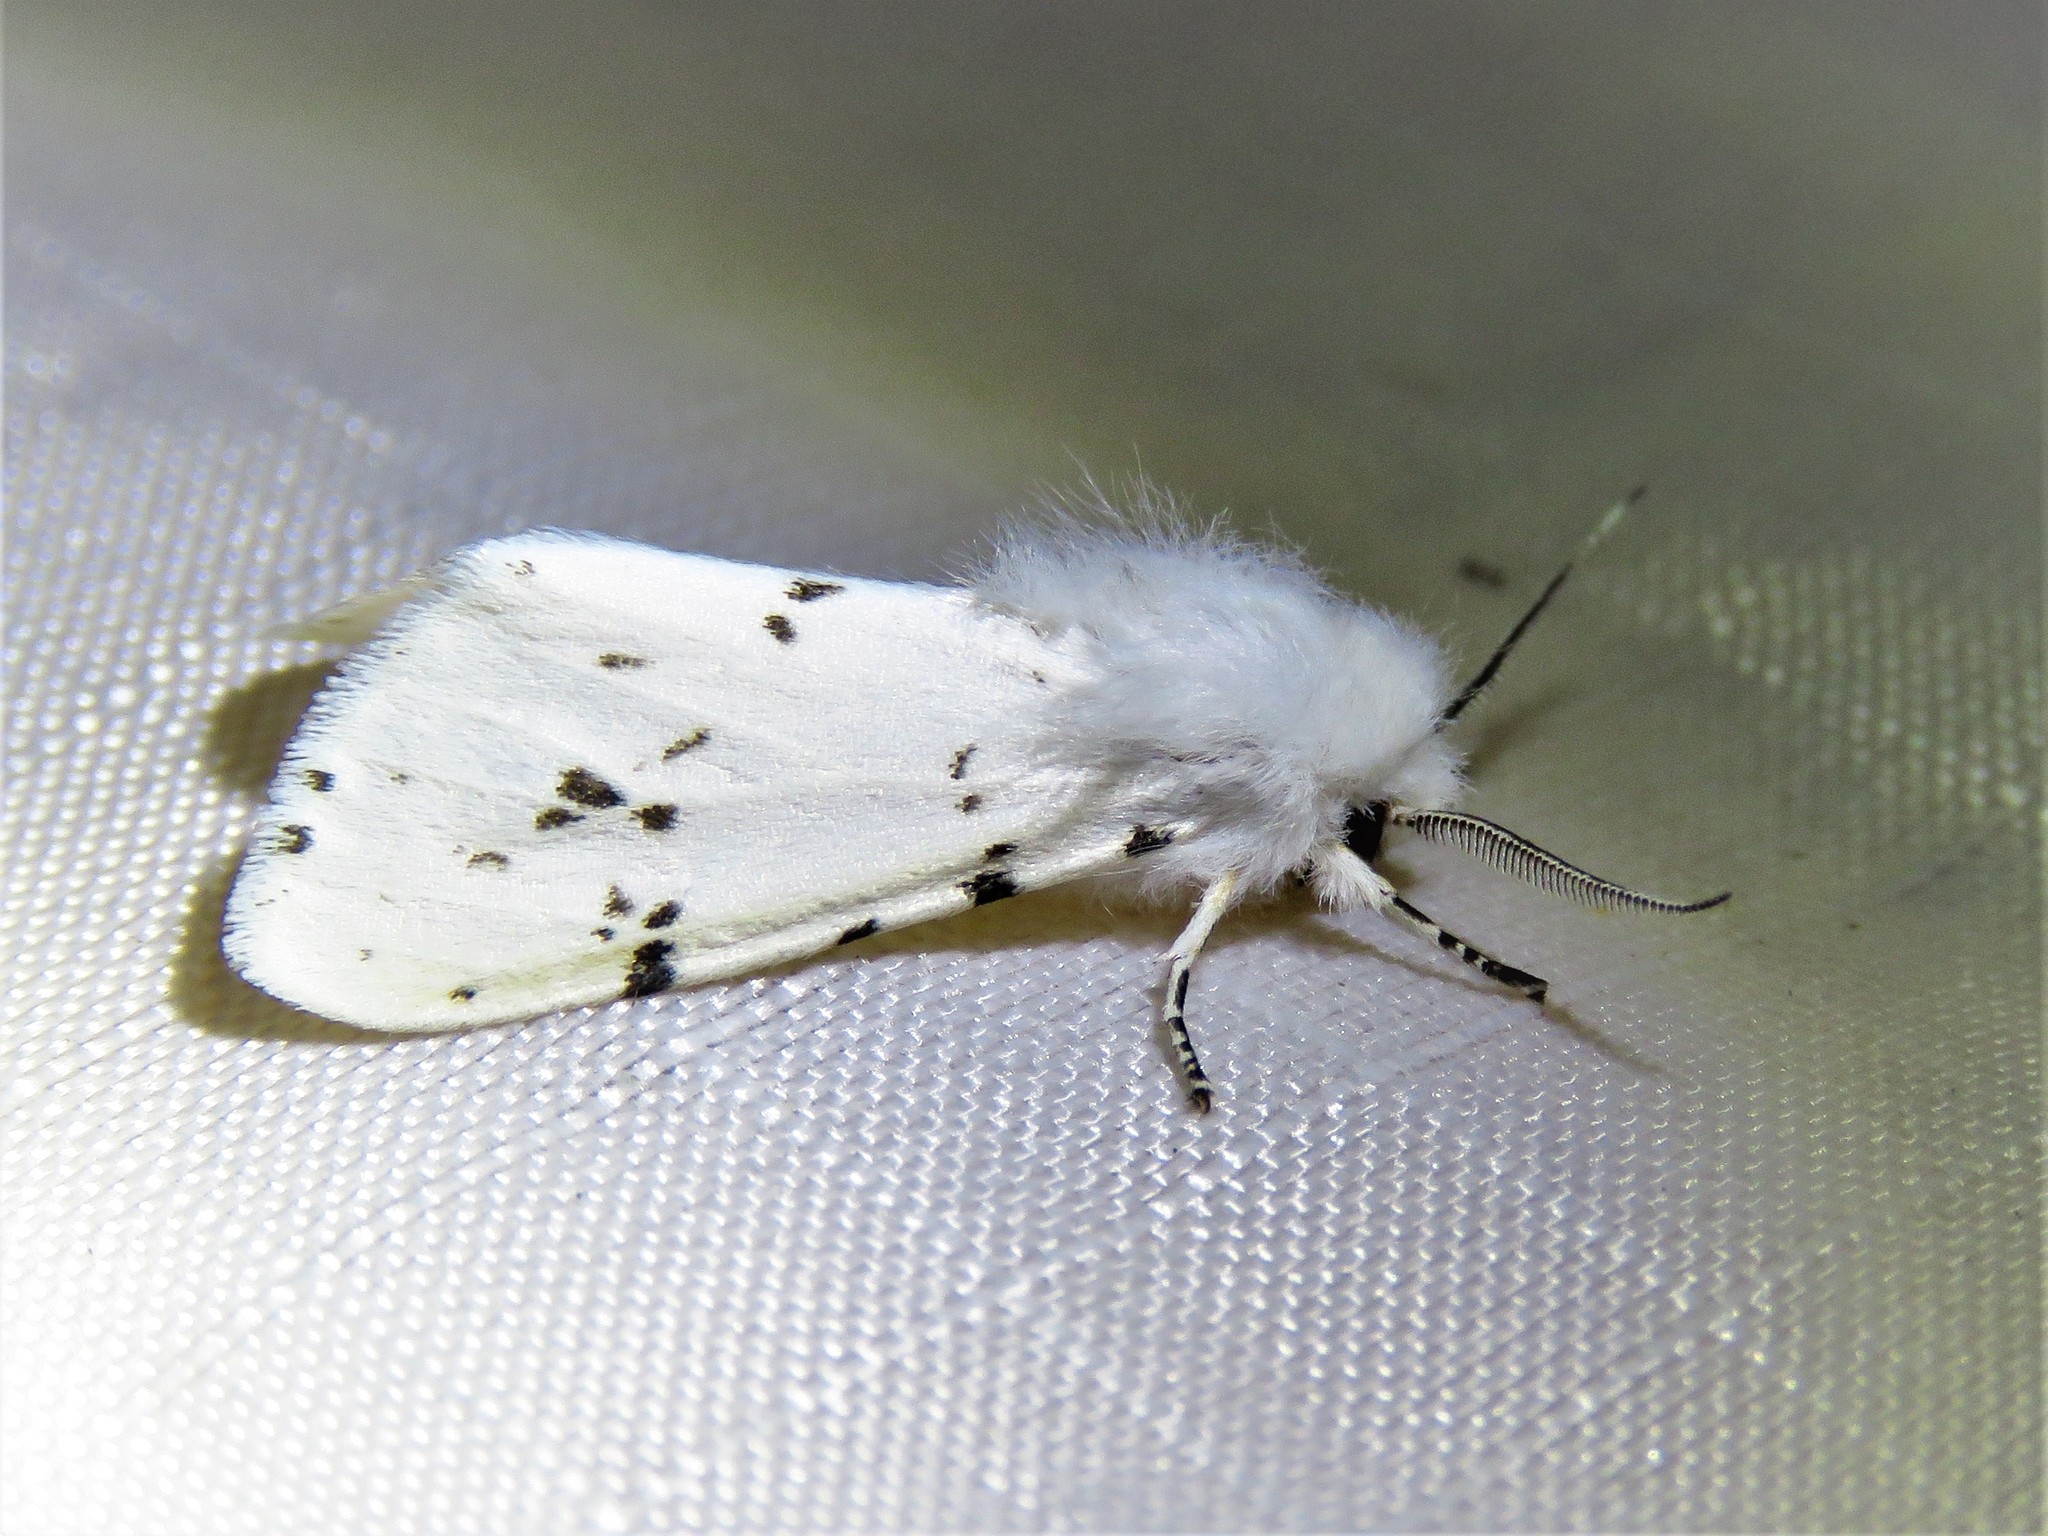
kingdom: Animalia
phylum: Arthropoda
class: Insecta
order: Lepidoptera
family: Erebidae
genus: Hyphantria
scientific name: Hyphantria cunea
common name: American white moth
